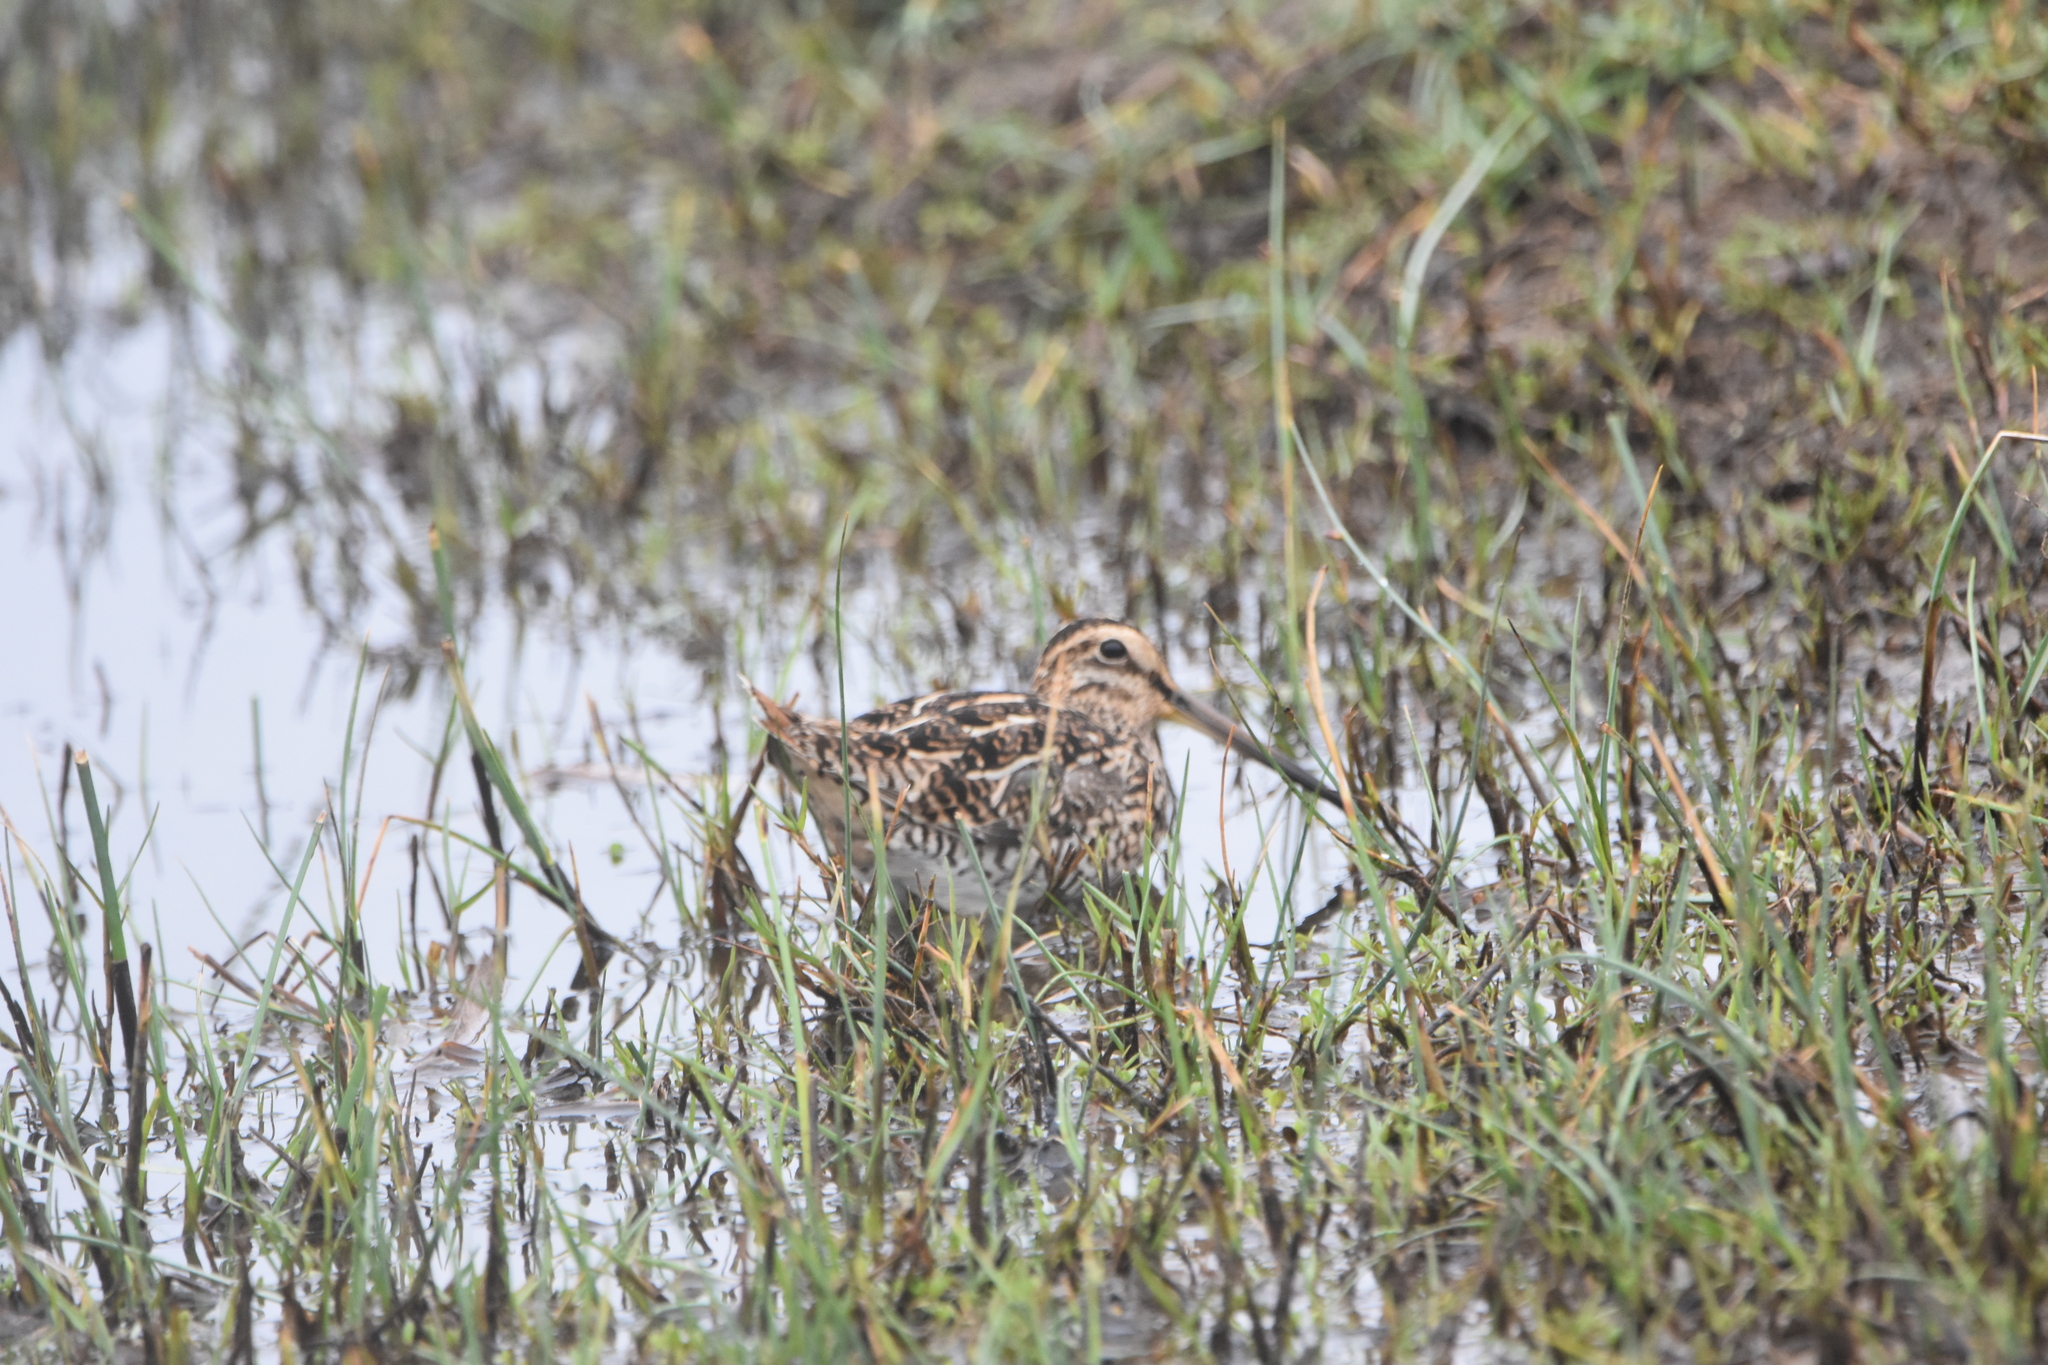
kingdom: Animalia
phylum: Chordata
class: Aves
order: Charadriiformes
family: Scolopacidae
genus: Gallinago
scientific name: Gallinago magellanica
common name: Magellanic snipe
